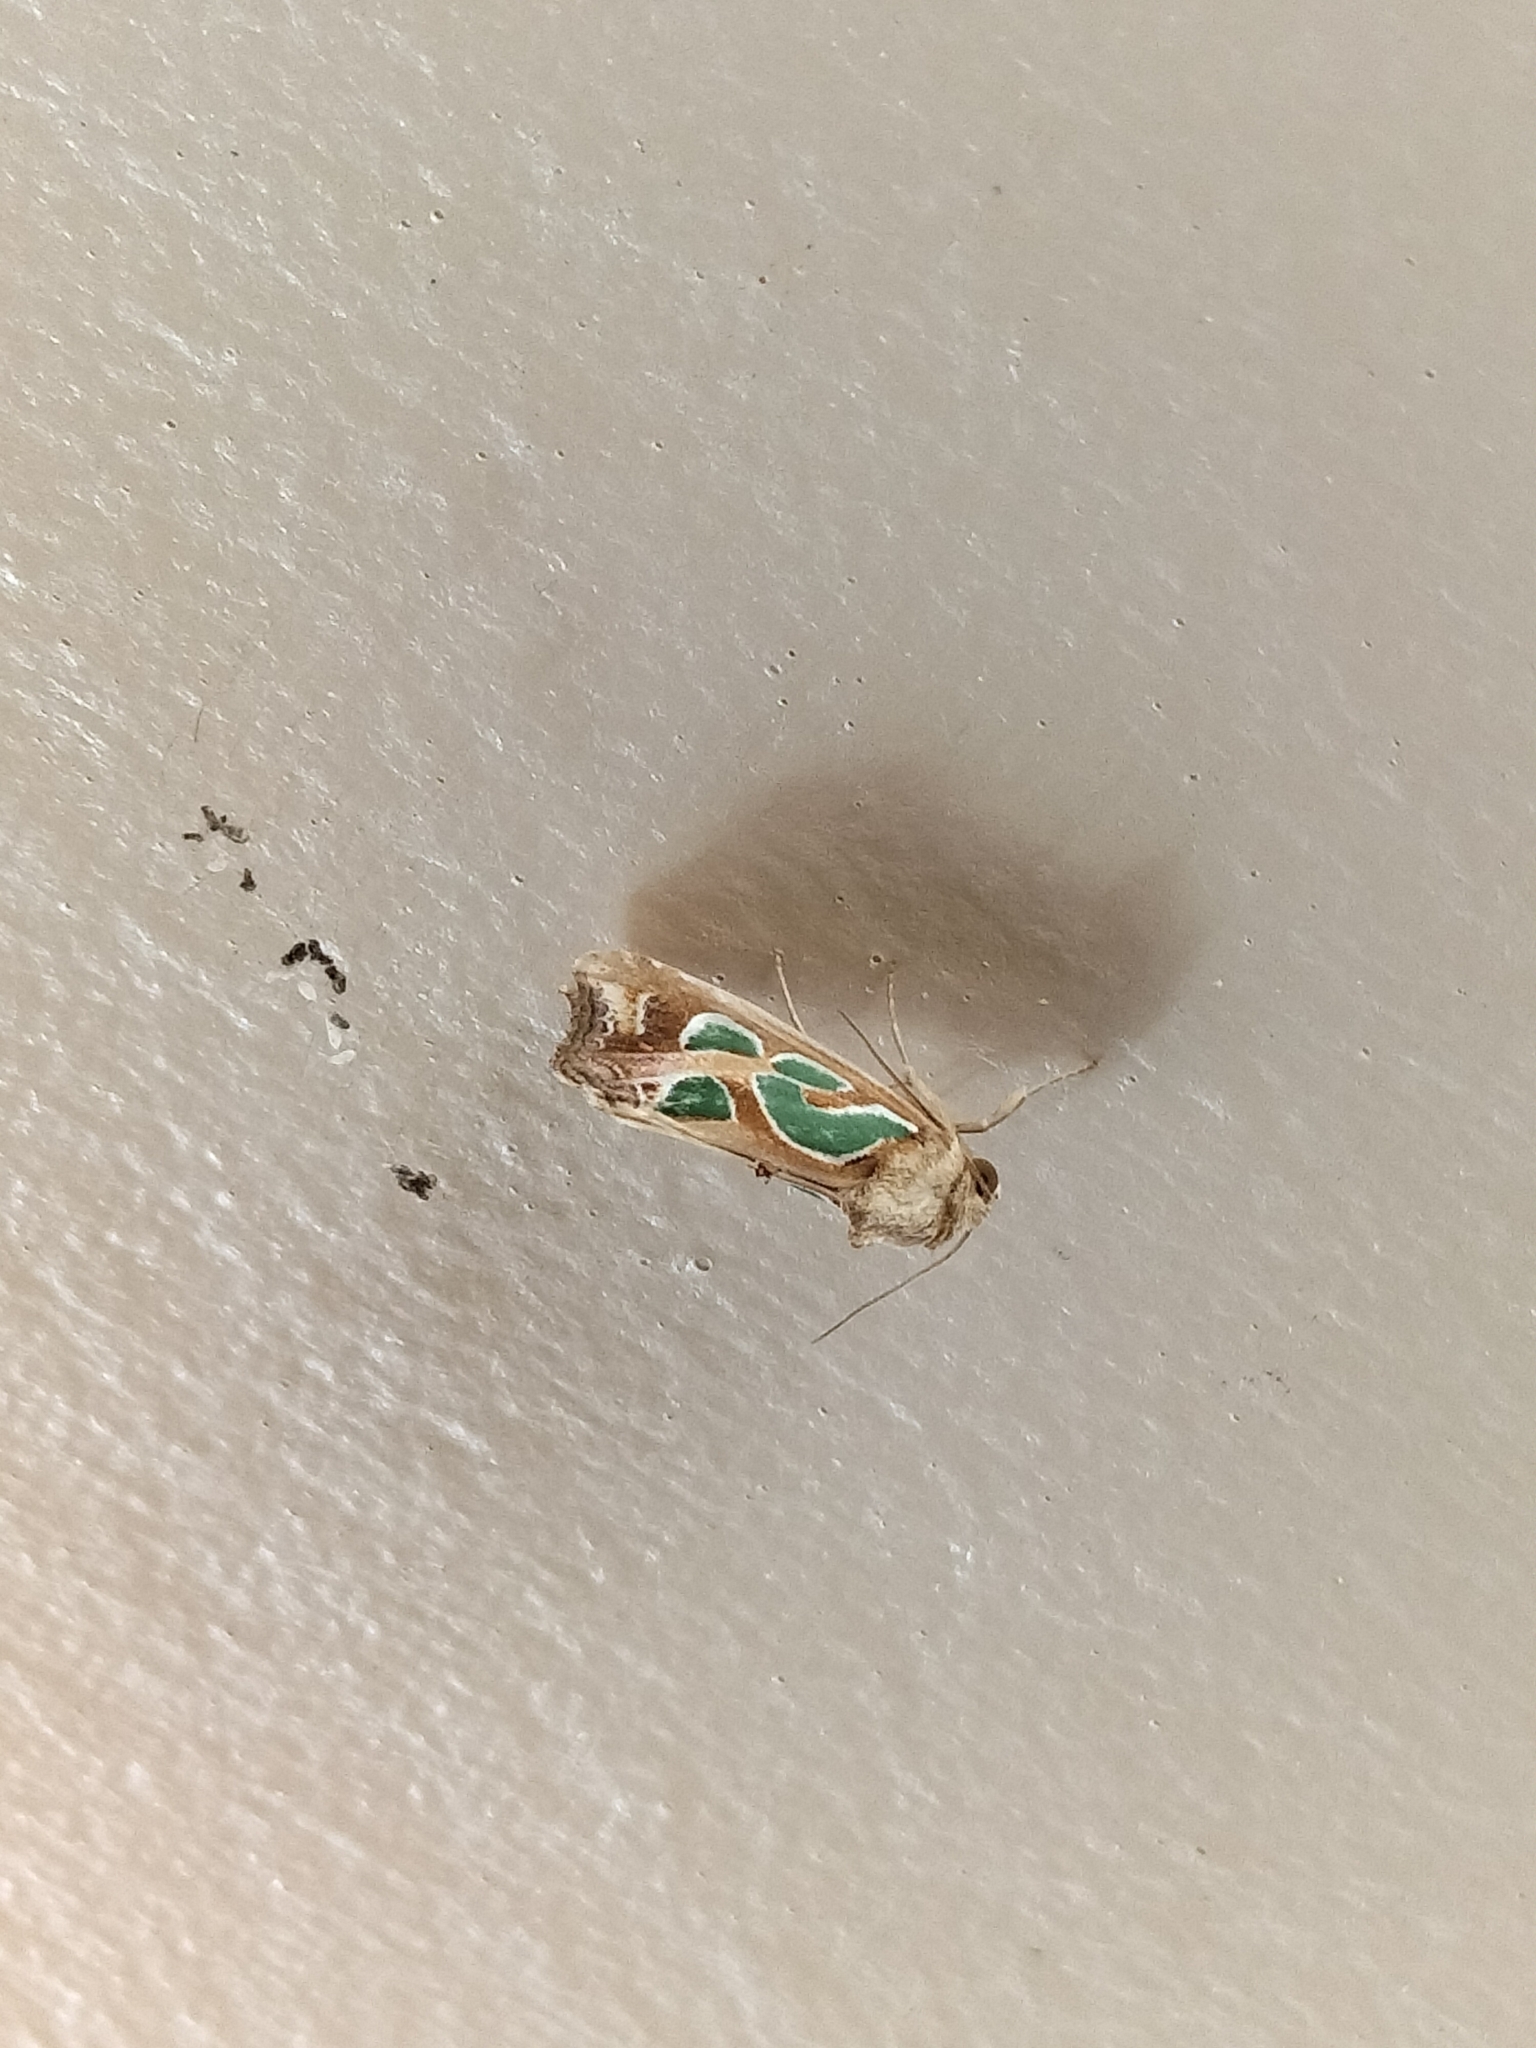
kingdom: Animalia
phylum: Arthropoda
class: Insecta
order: Lepidoptera
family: Noctuidae
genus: Cosmodes
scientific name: Cosmodes elegans
